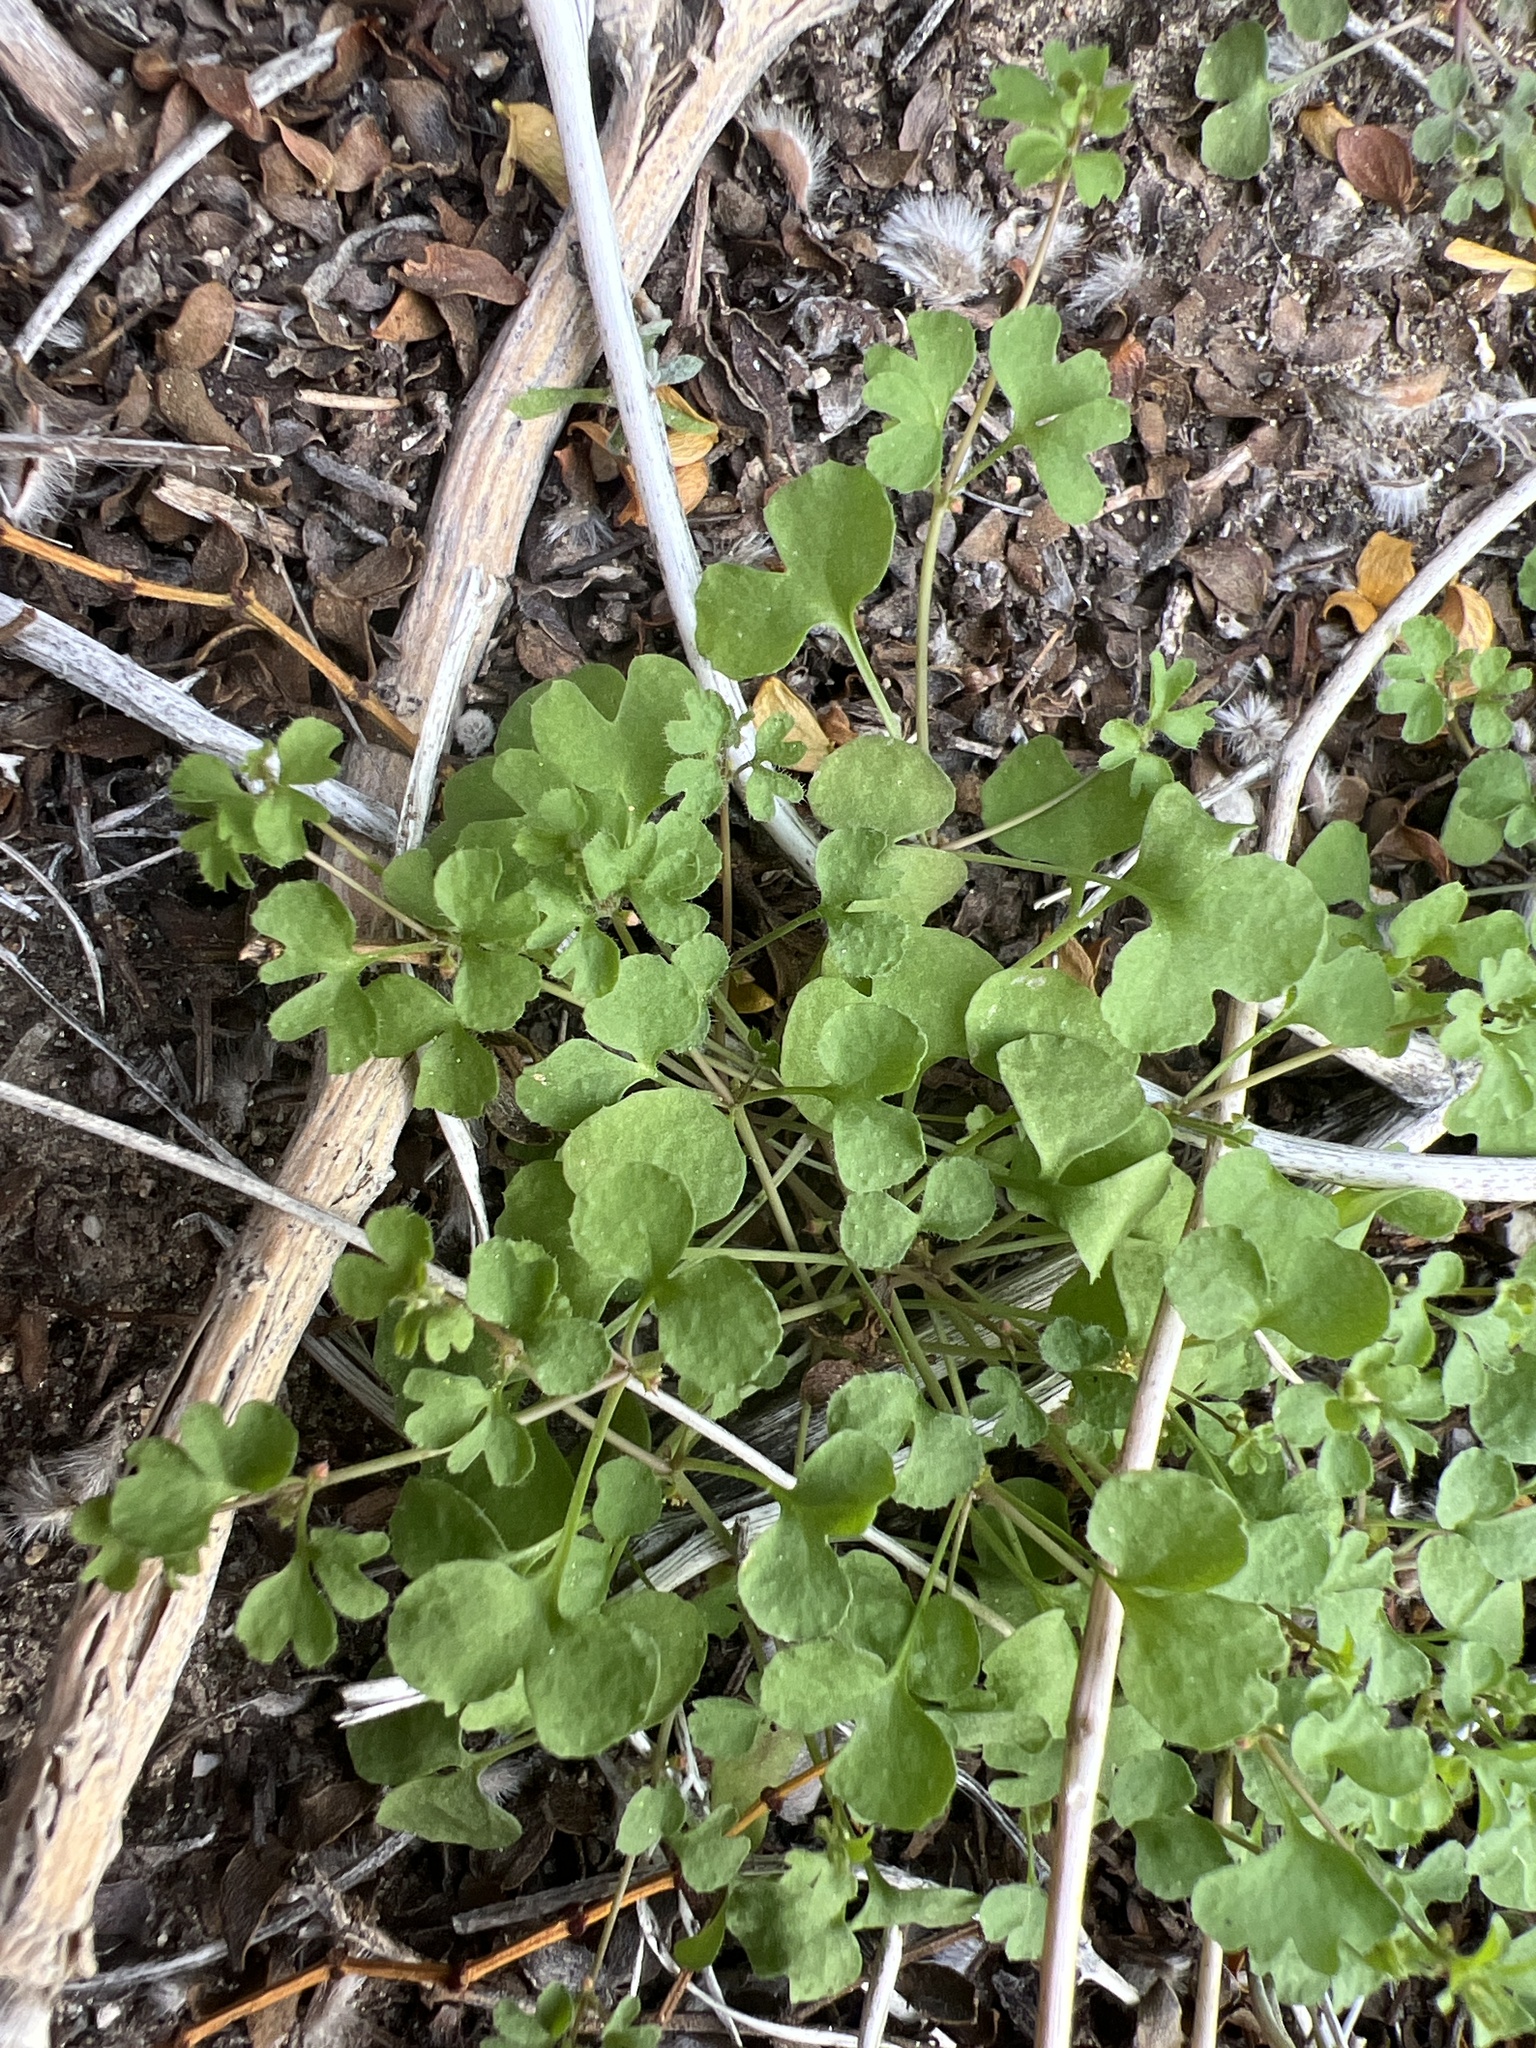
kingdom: Plantae
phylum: Tracheophyta
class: Magnoliopsida
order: Caryophyllales
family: Polygonaceae
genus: Pterostegia
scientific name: Pterostegia drymarioides
